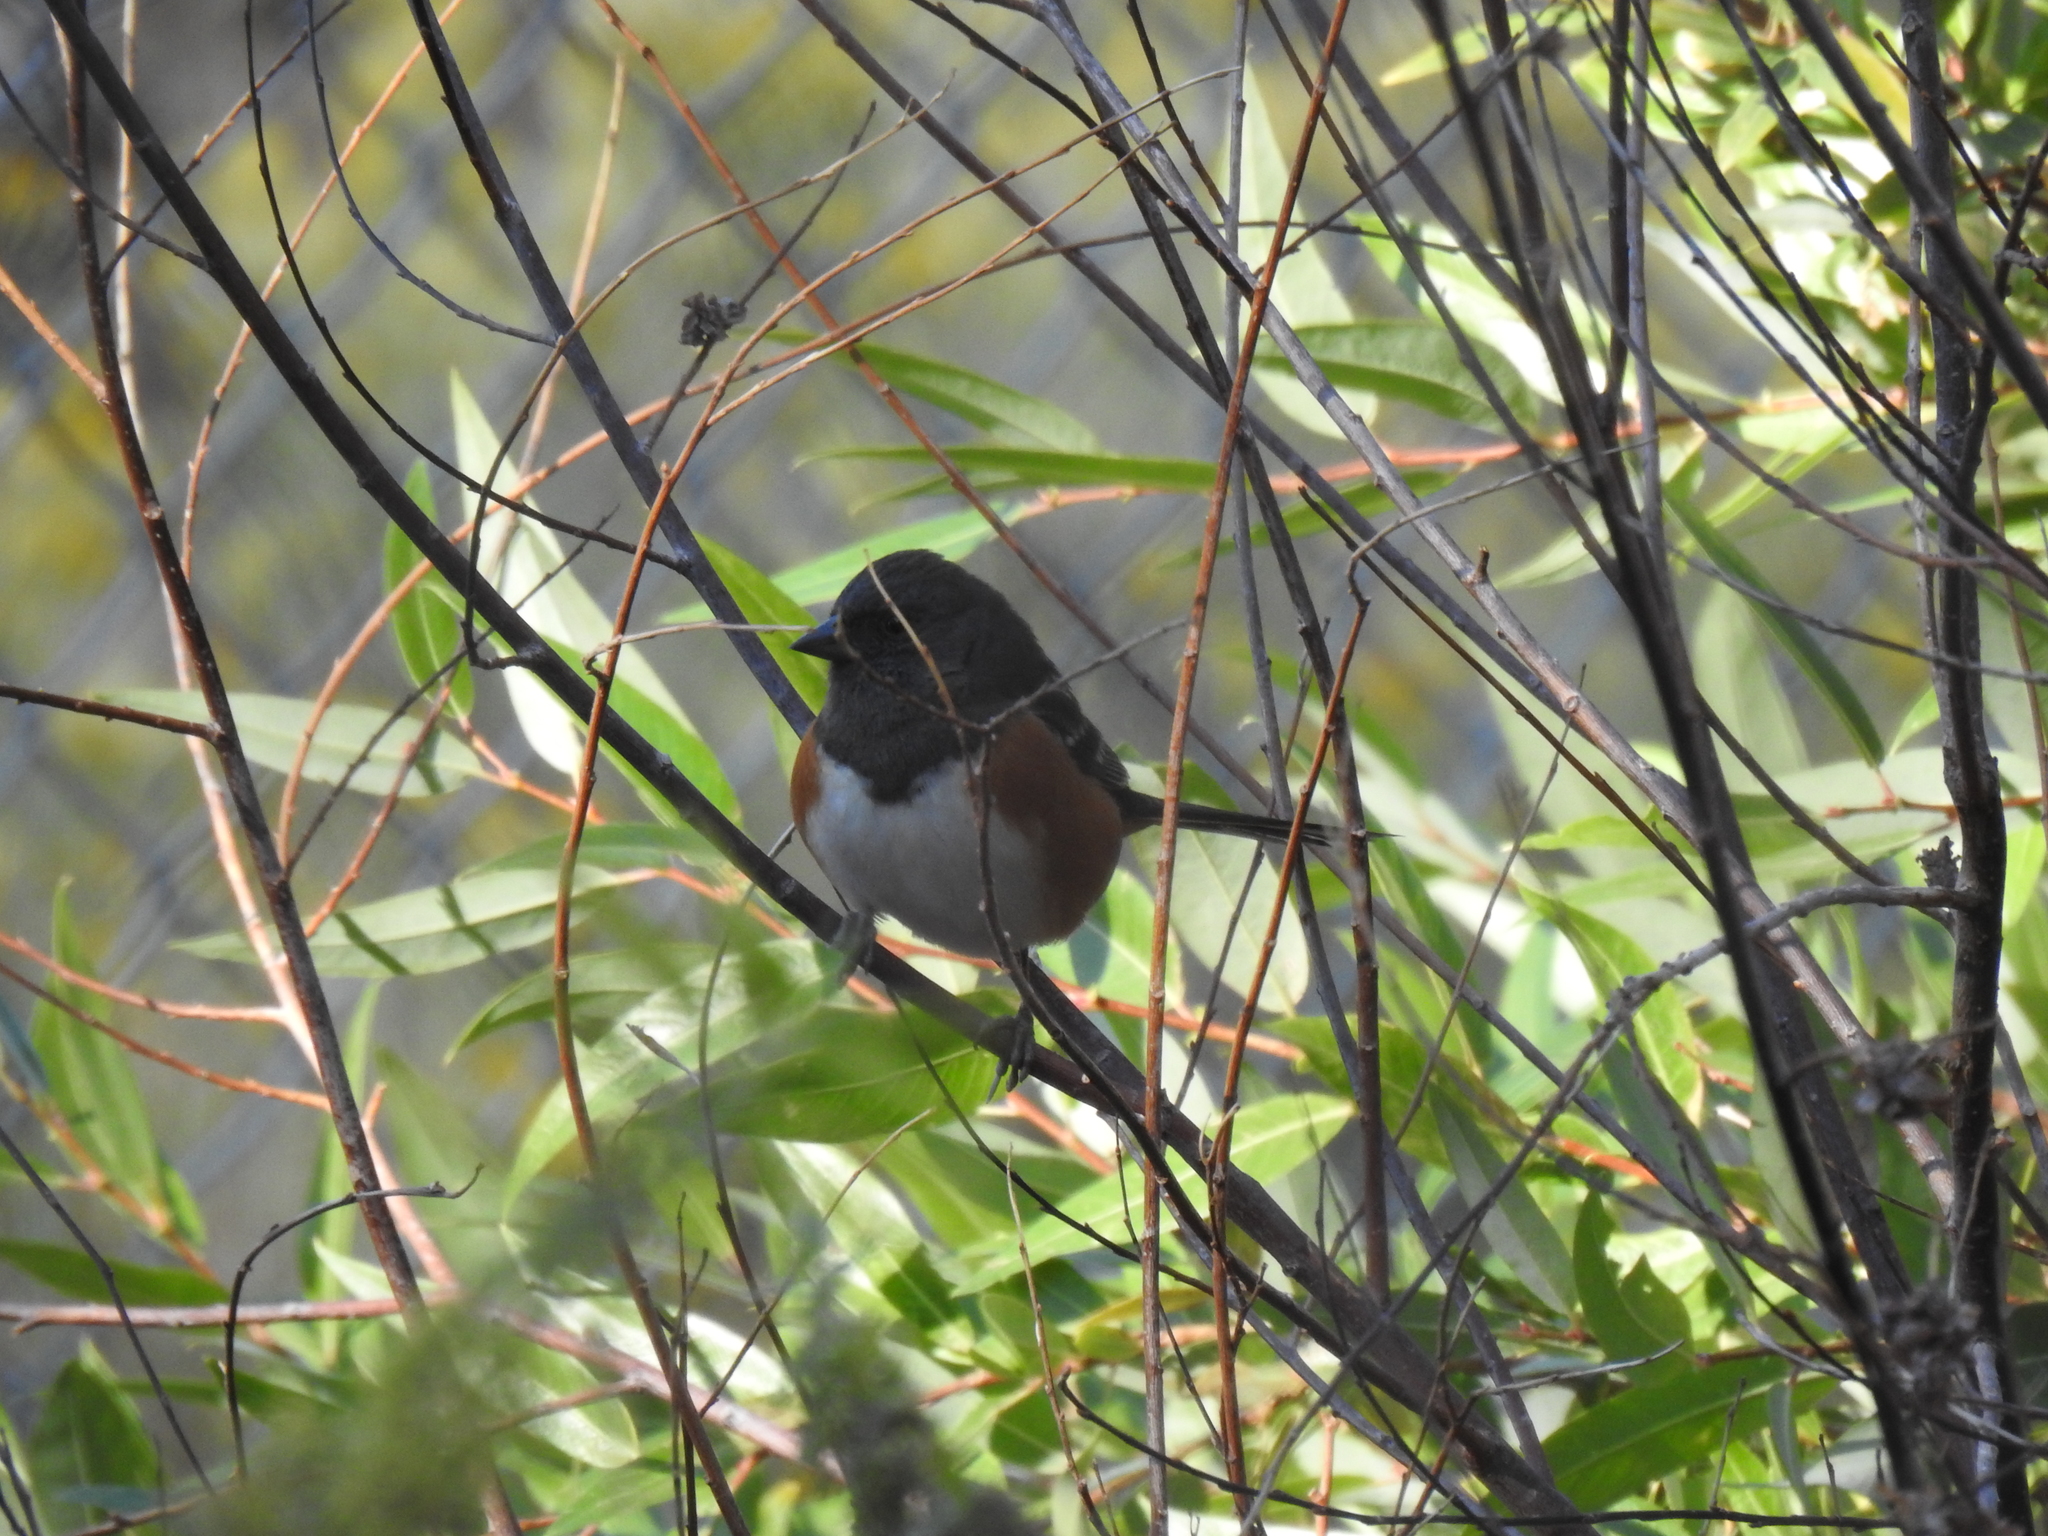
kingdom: Animalia
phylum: Chordata
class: Aves
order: Passeriformes
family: Passerellidae
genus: Pipilo
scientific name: Pipilo maculatus
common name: Spotted towhee
